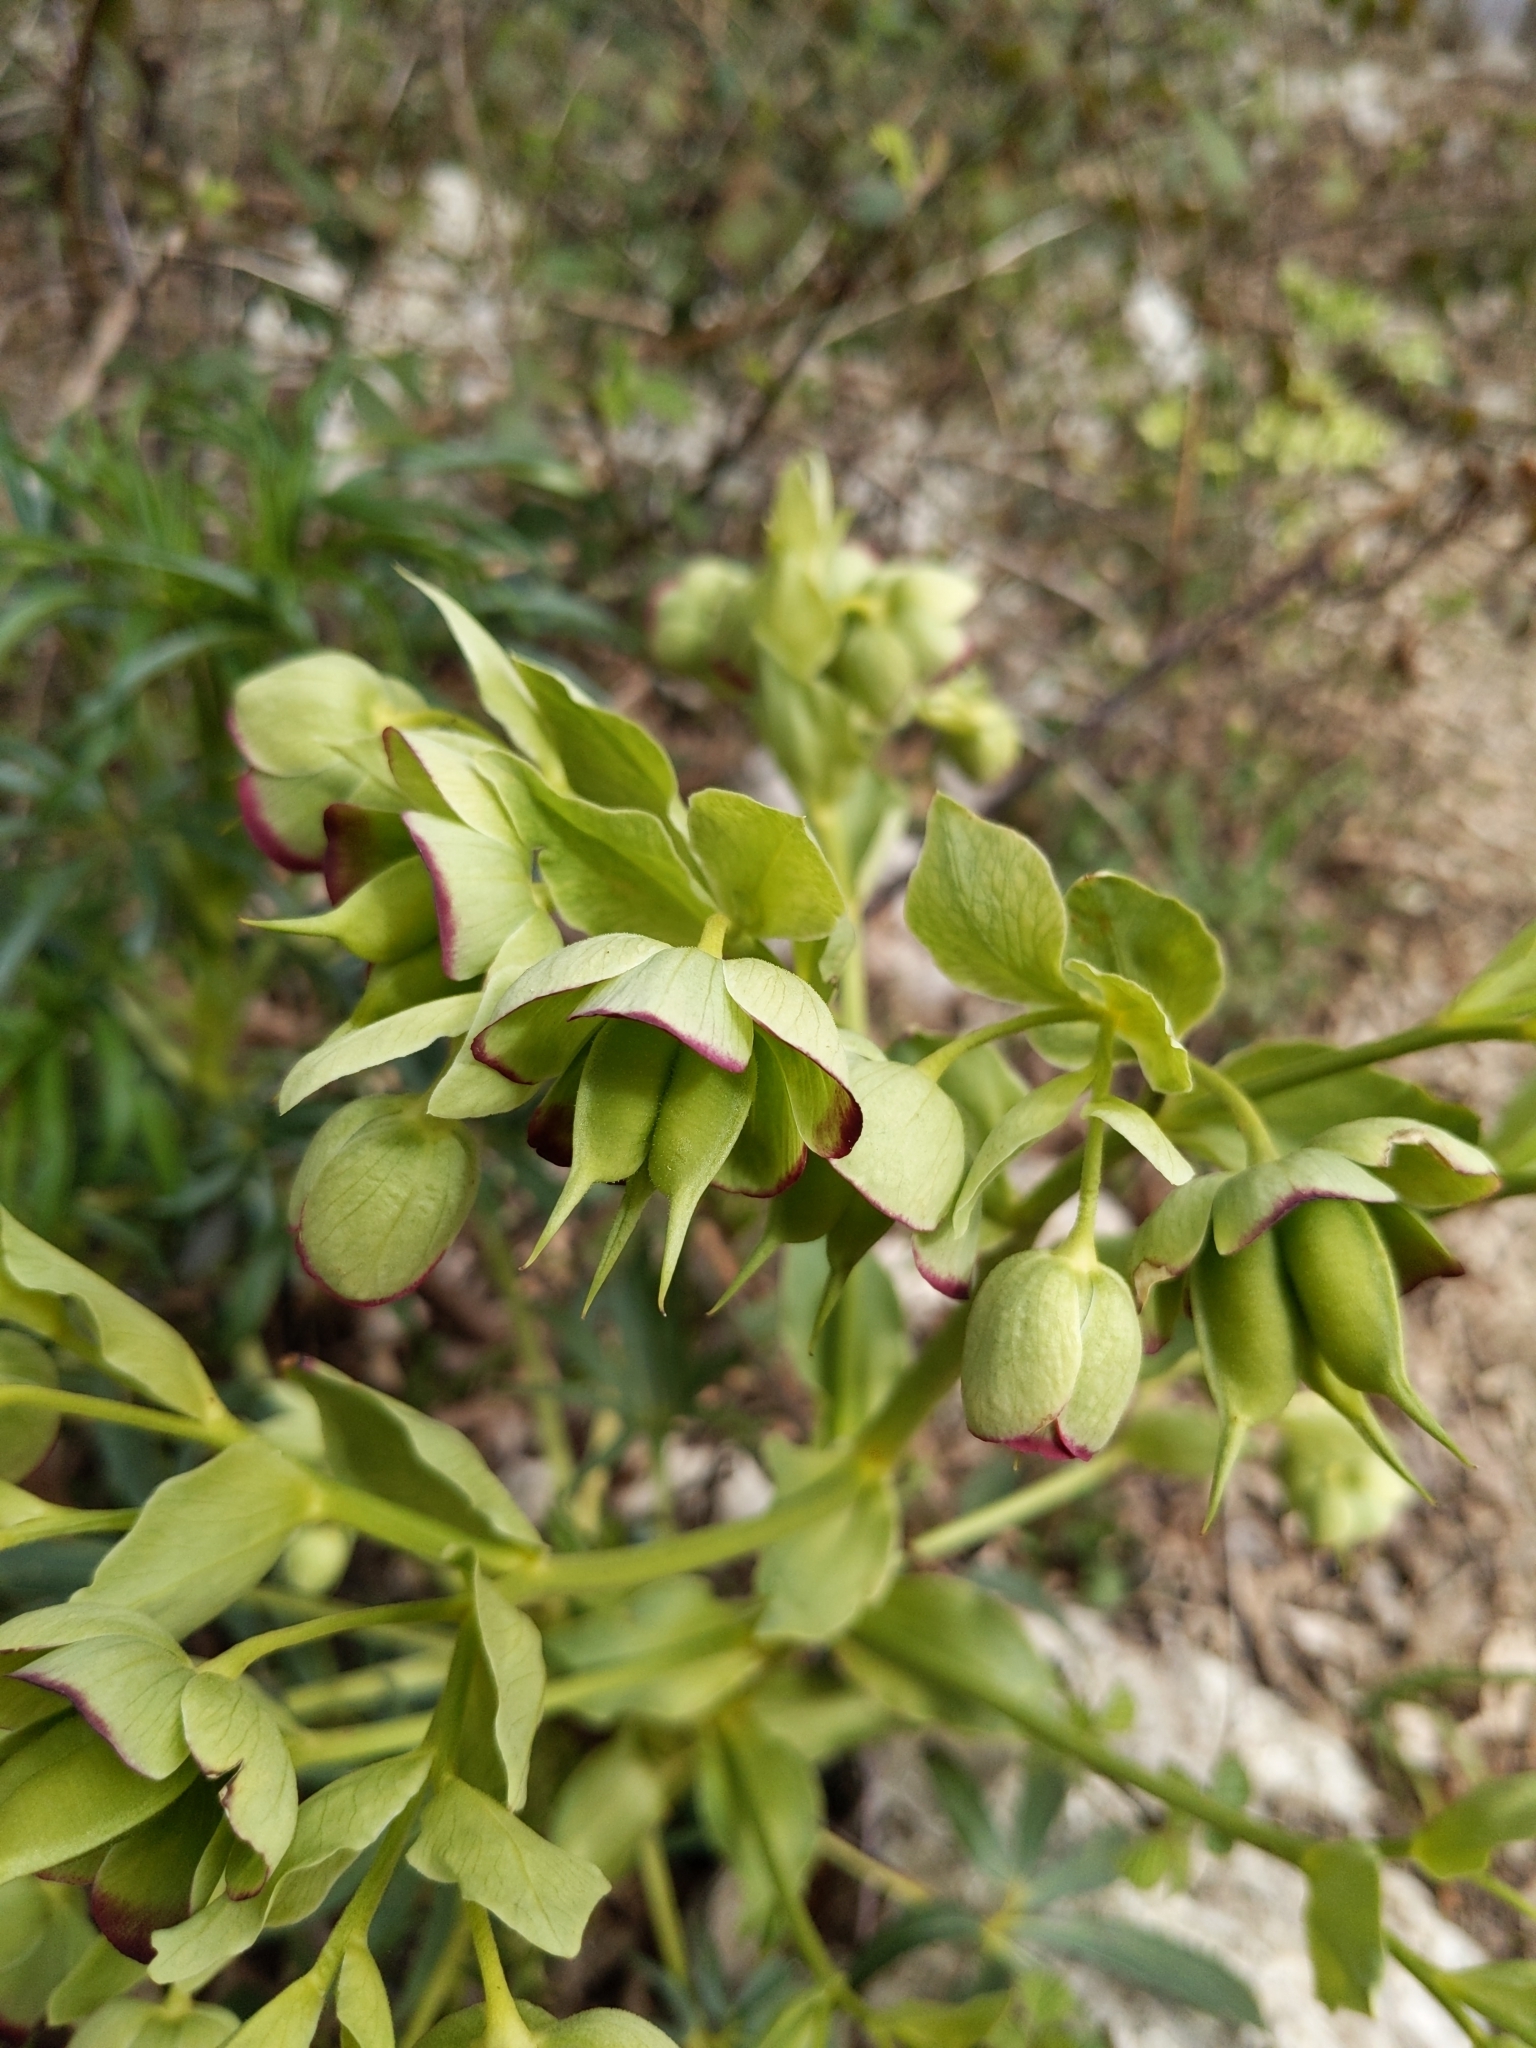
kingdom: Plantae
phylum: Tracheophyta
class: Magnoliopsida
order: Ranunculales
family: Ranunculaceae
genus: Helleborus
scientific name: Helleborus foetidus
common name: Stinking hellebore
